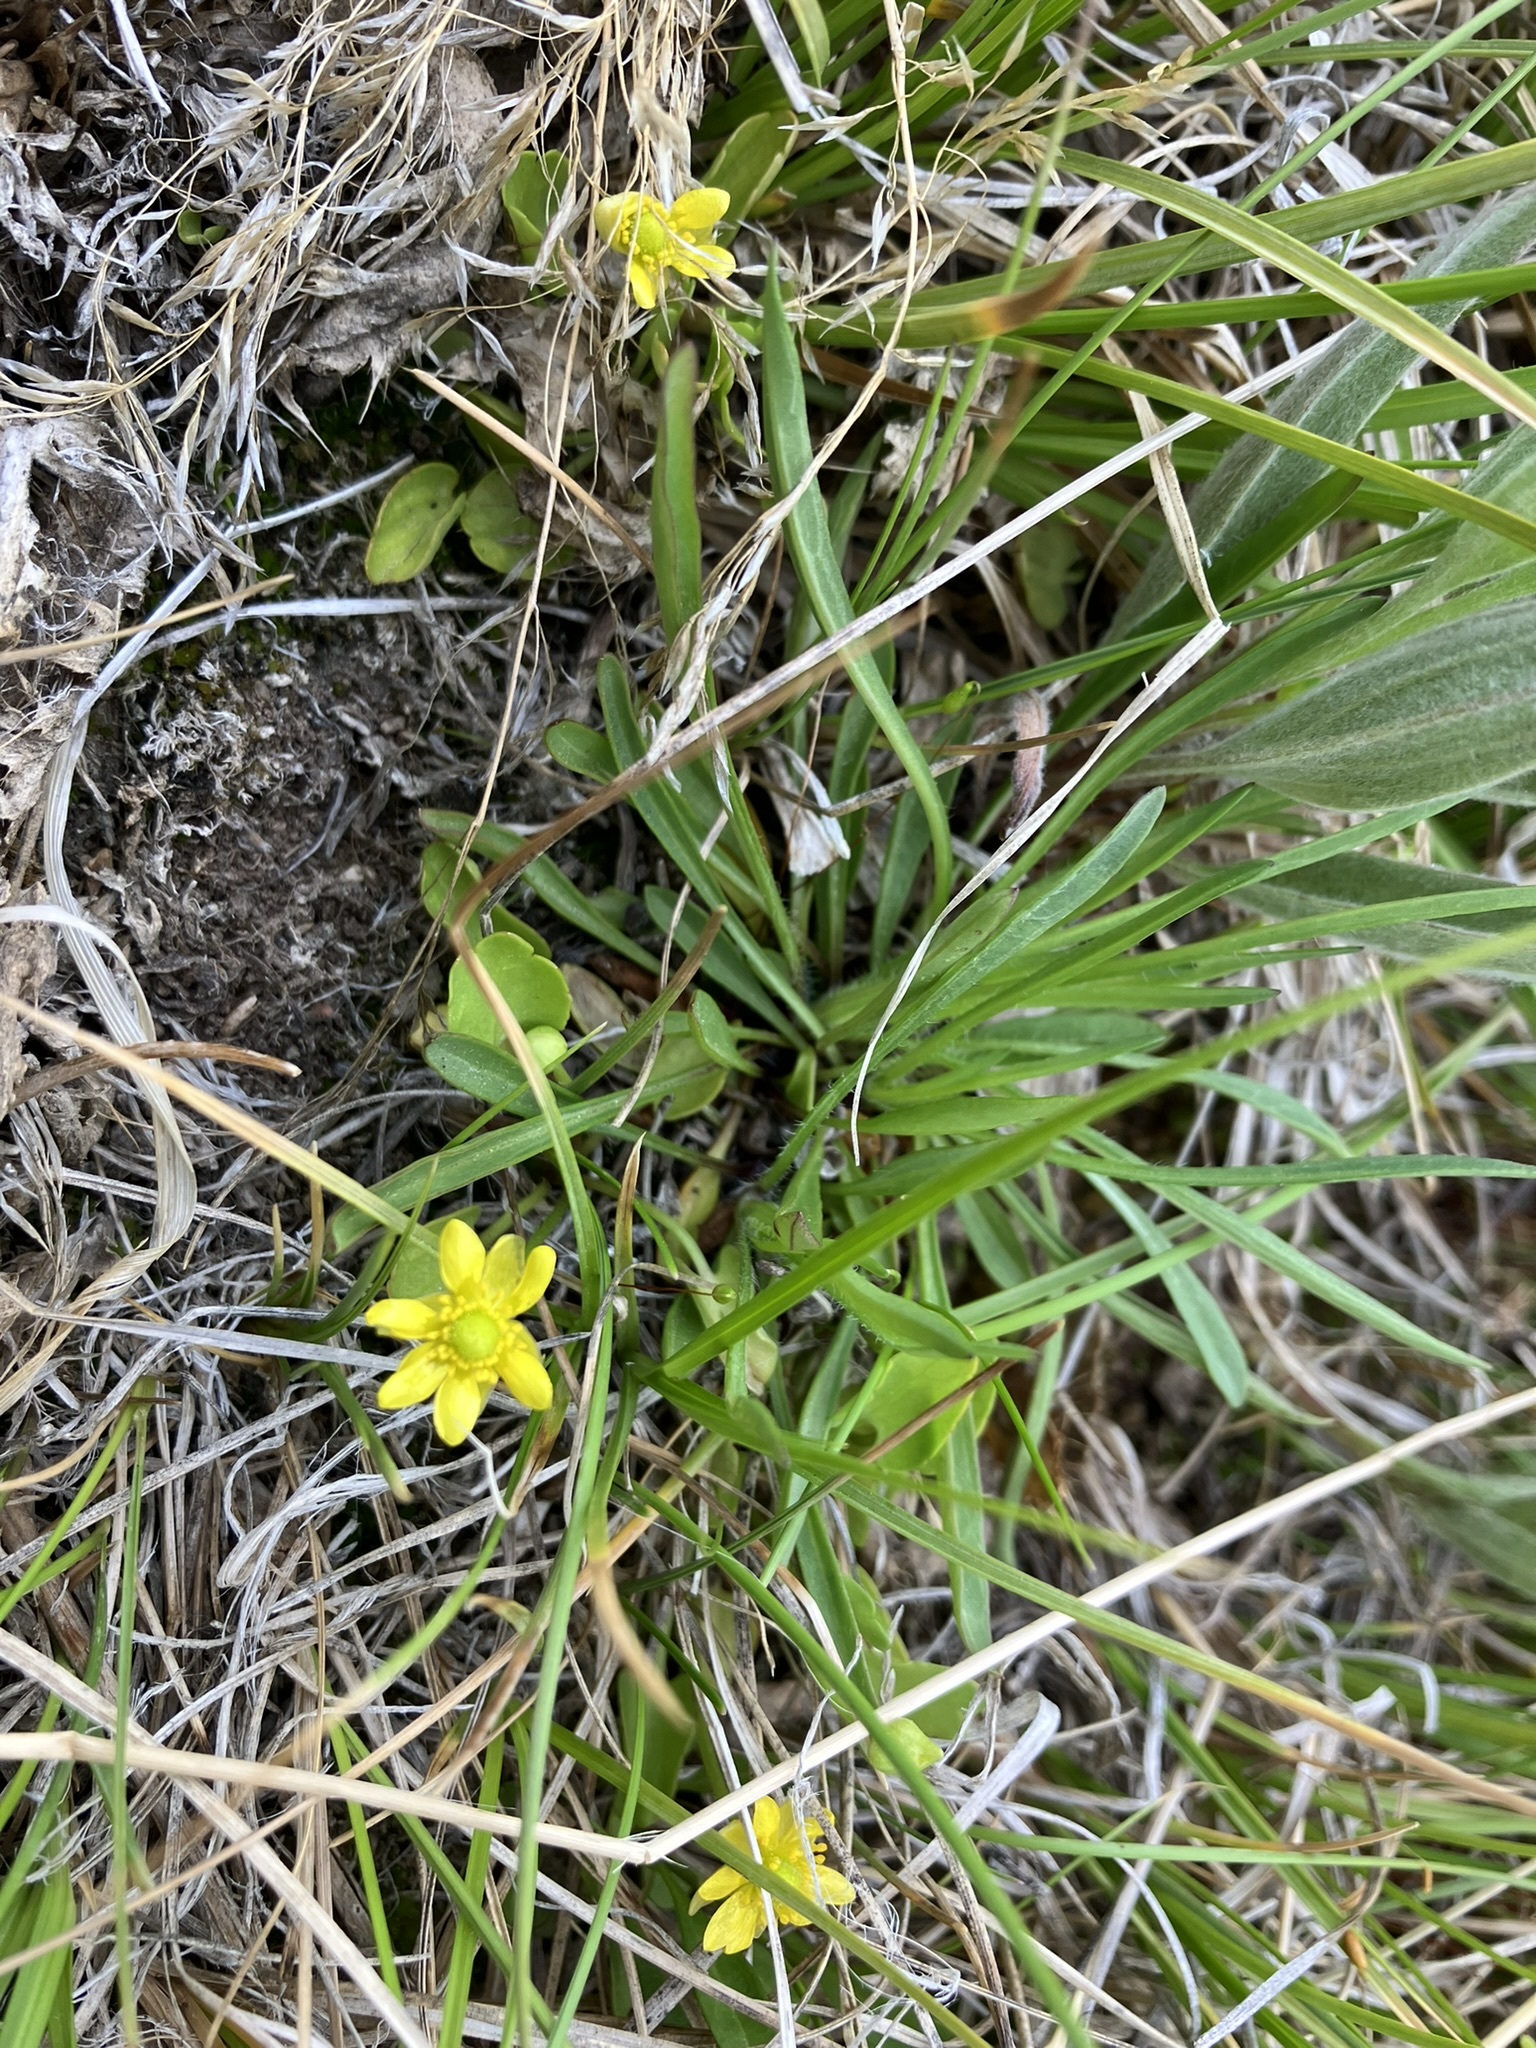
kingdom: Plantae
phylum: Tracheophyta
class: Magnoliopsida
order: Ranunculales
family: Ranunculaceae
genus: Halerpestes
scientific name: Halerpestes cymbalaria
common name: Seaside crowfoot
